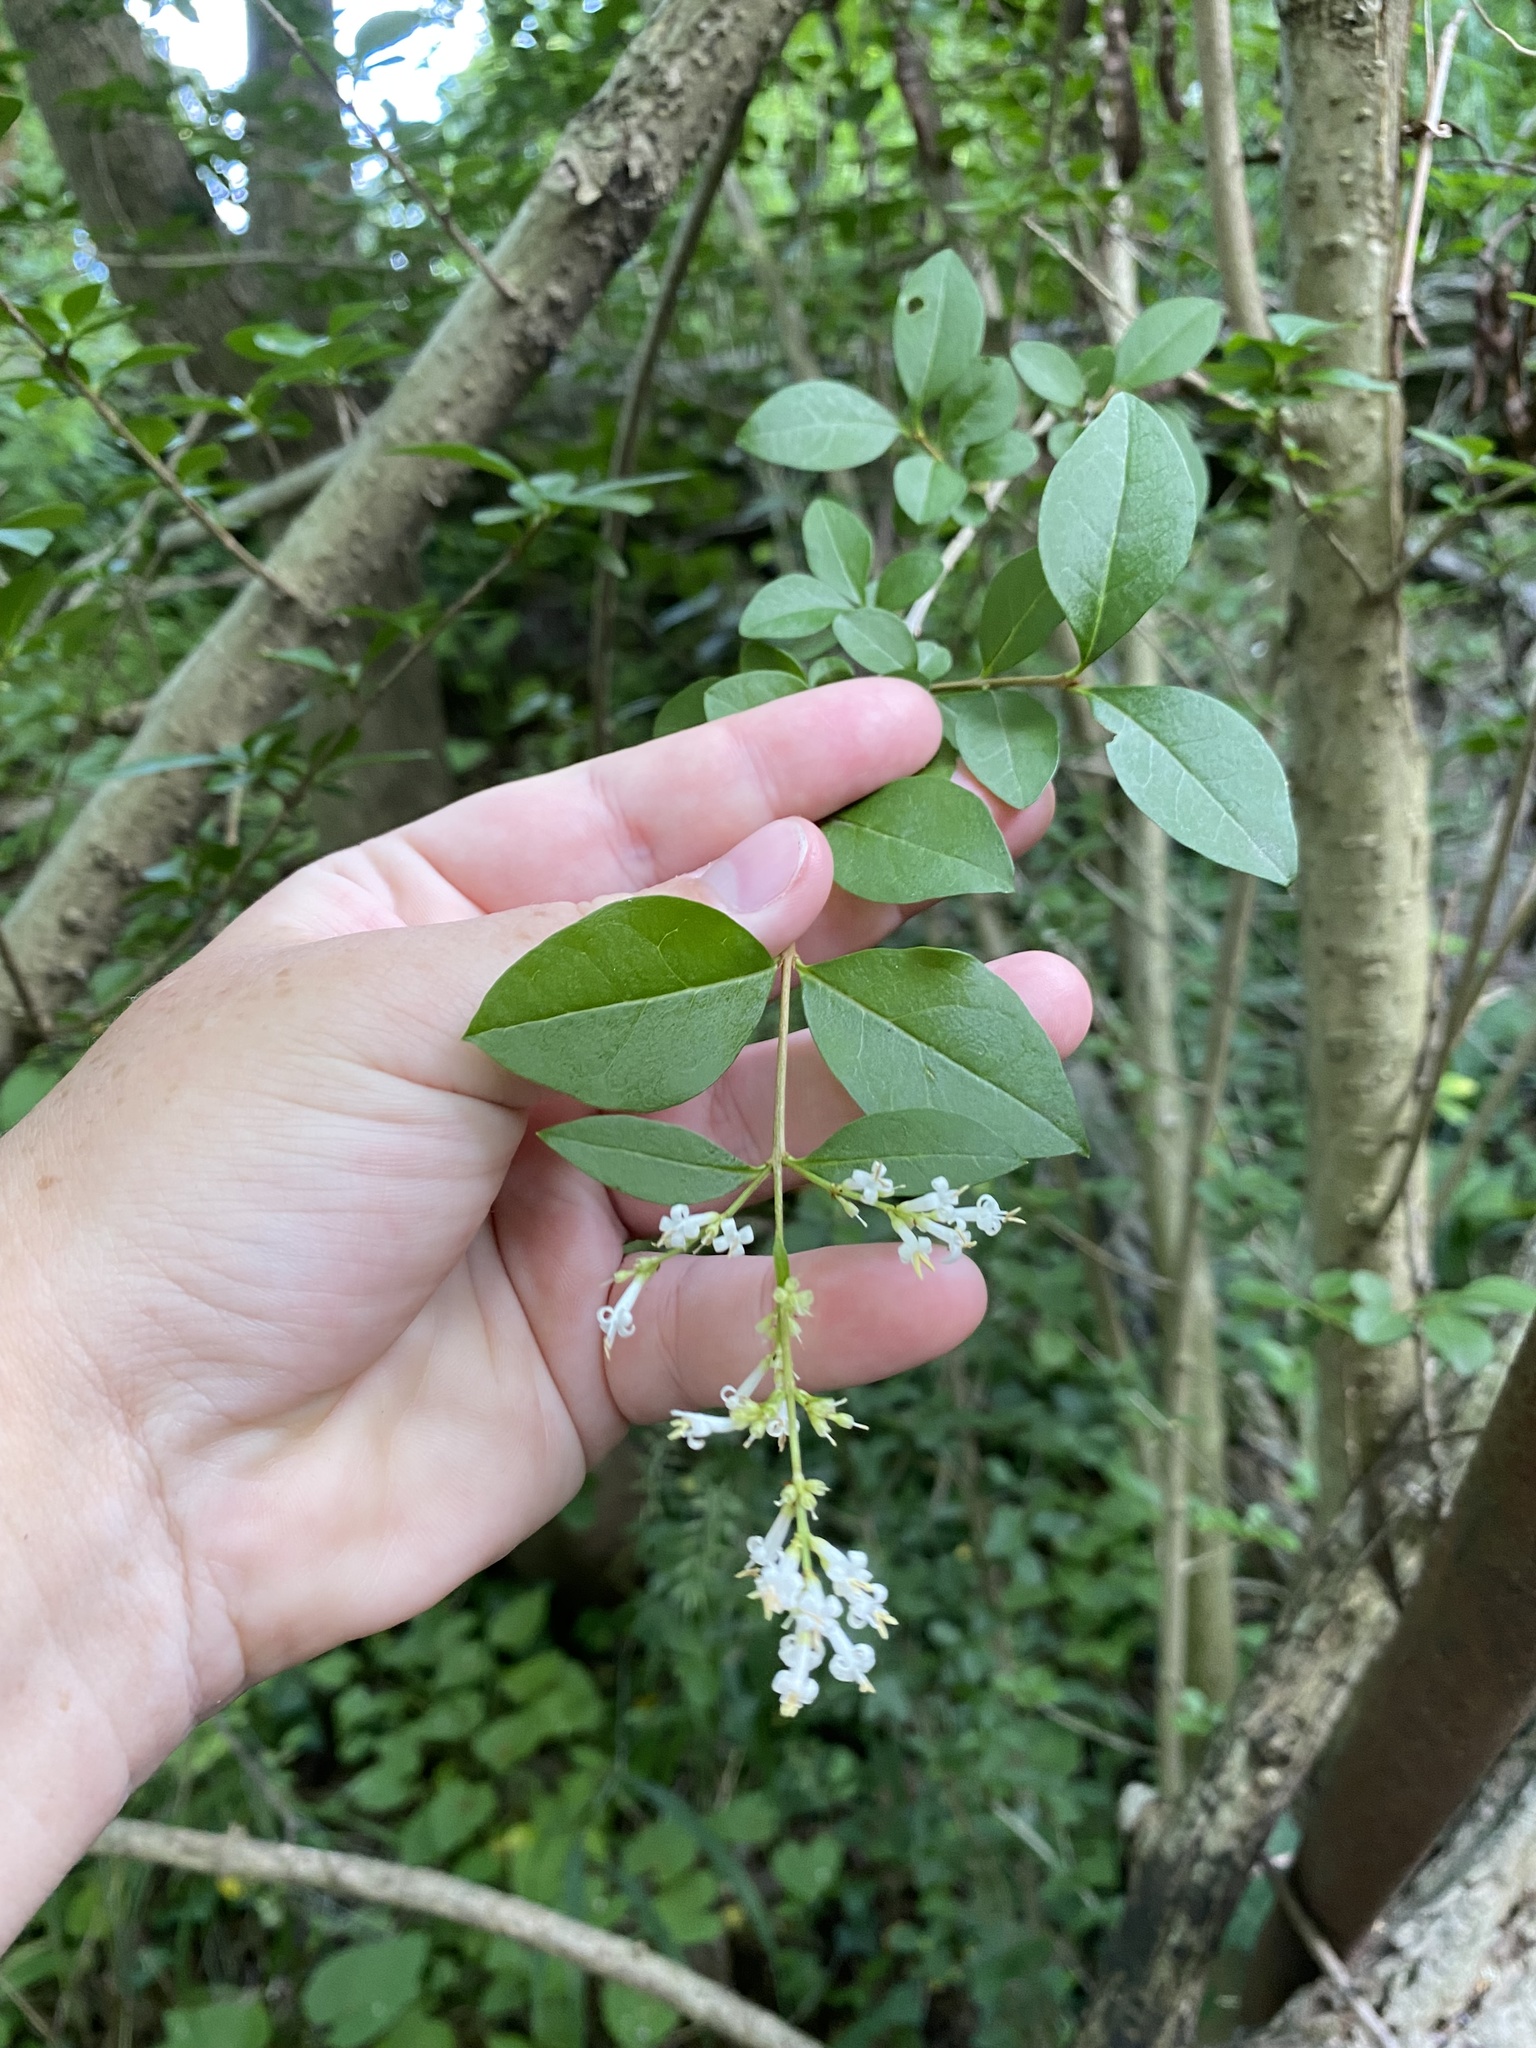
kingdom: Plantae
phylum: Tracheophyta
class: Magnoliopsida
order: Lamiales
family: Oleaceae
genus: Ligustrum
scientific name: Ligustrum ovalifolium
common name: California privet
